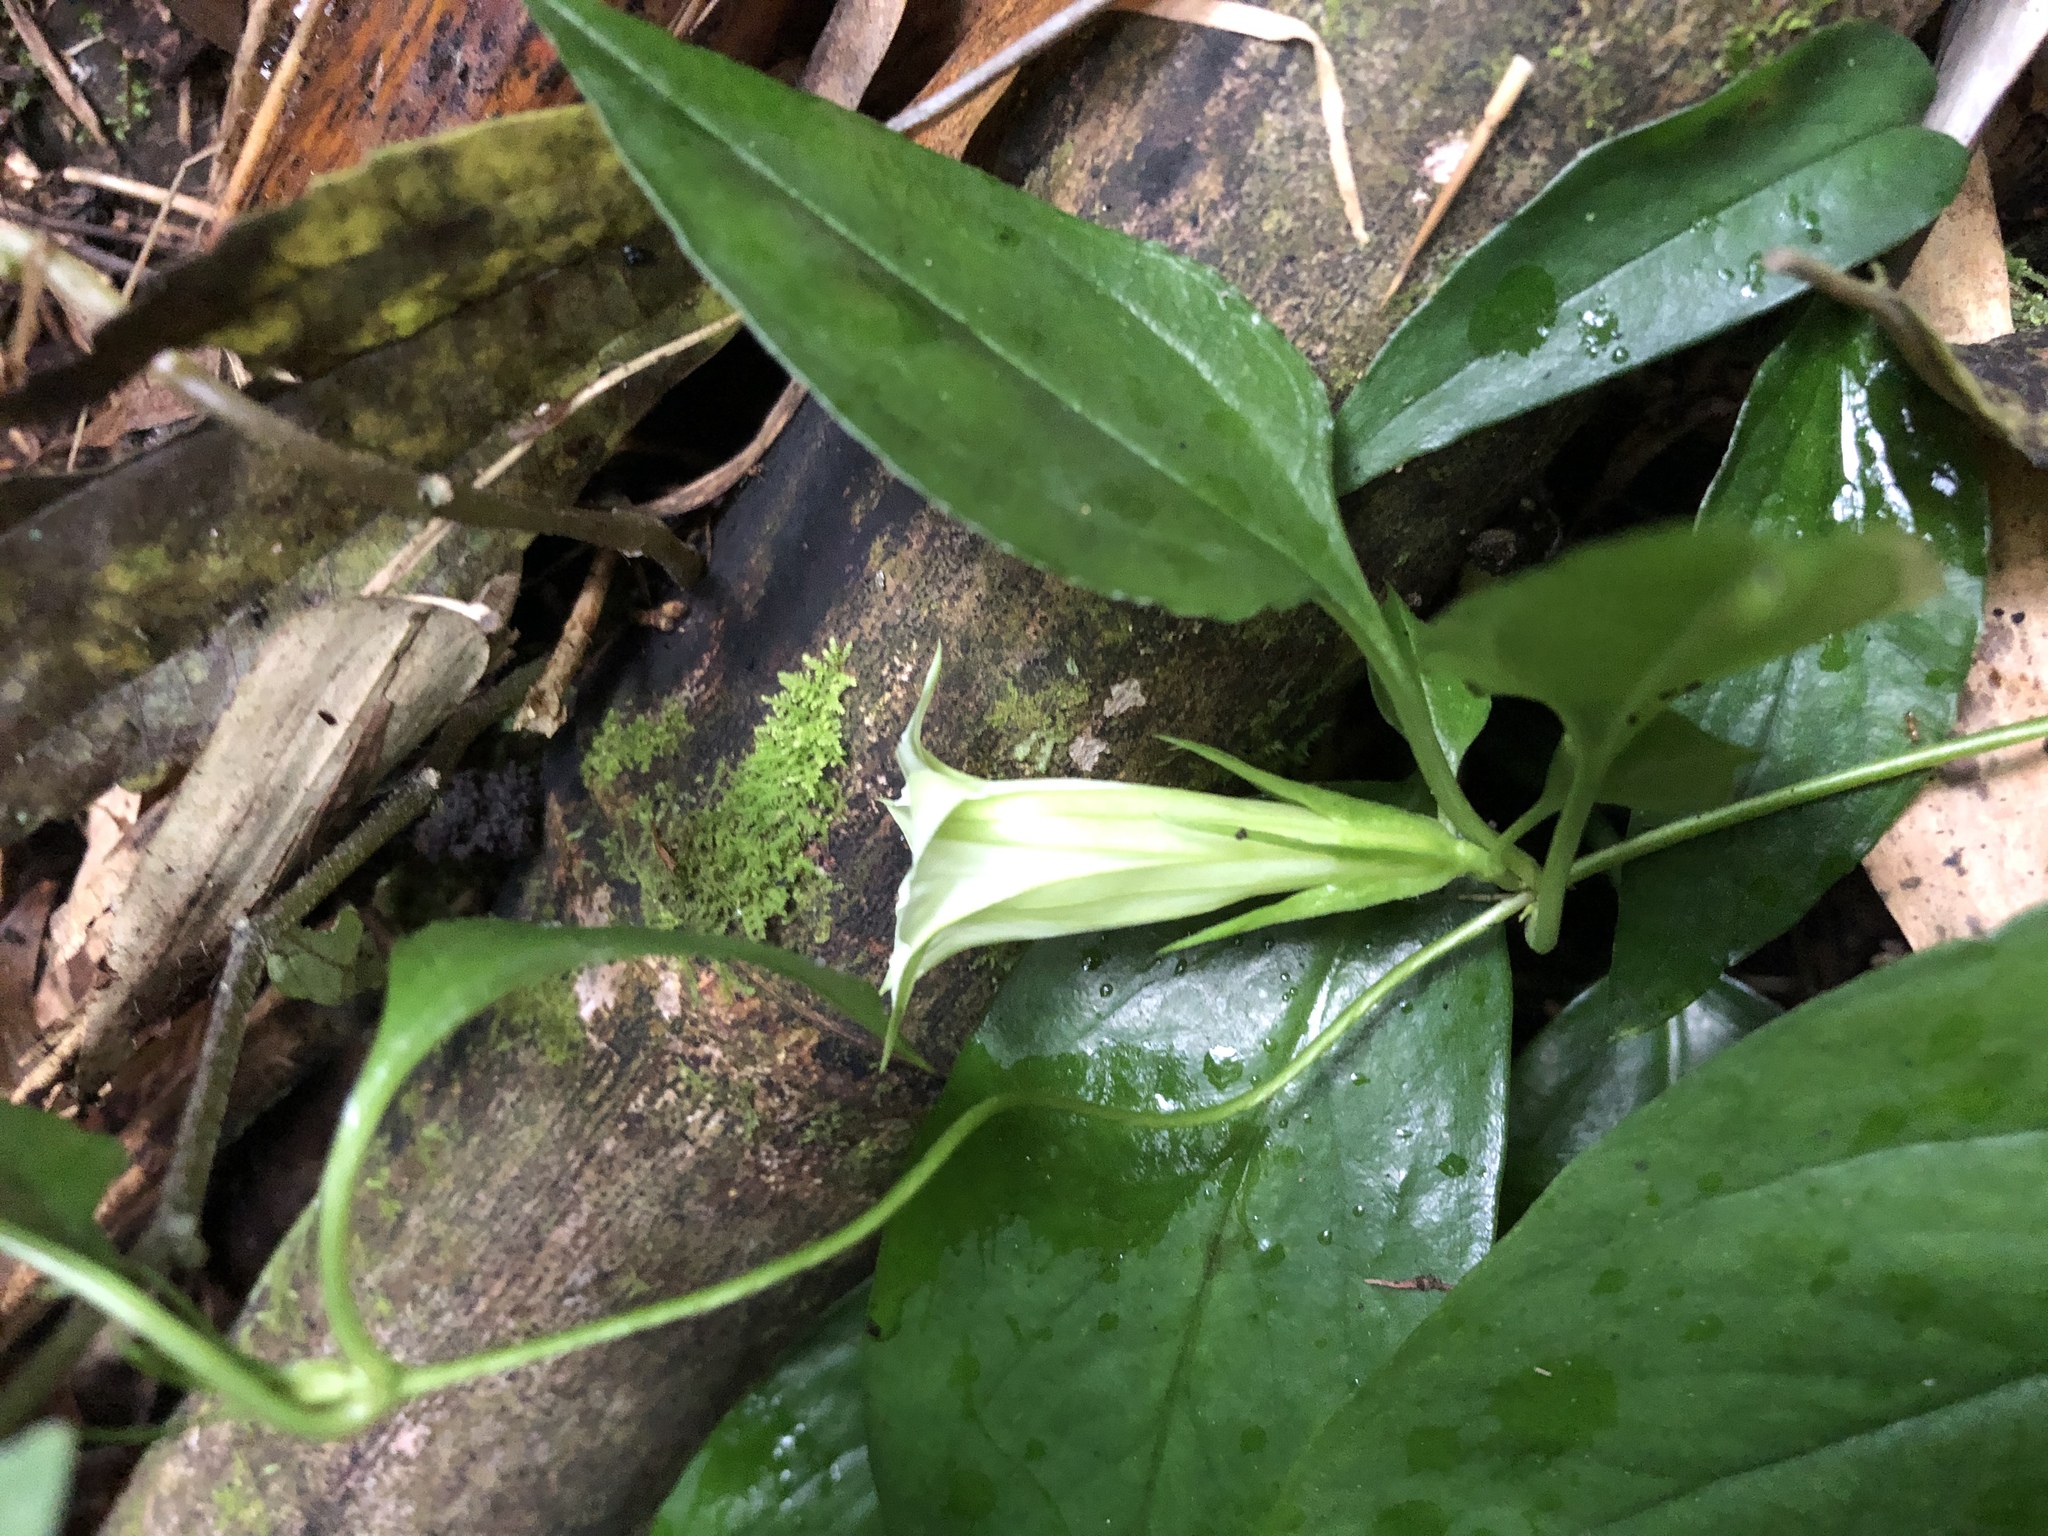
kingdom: Plantae
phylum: Tracheophyta
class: Magnoliopsida
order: Gentianales
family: Gentianaceae
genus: Tripterospermum
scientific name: Tripterospermum taiwanense
